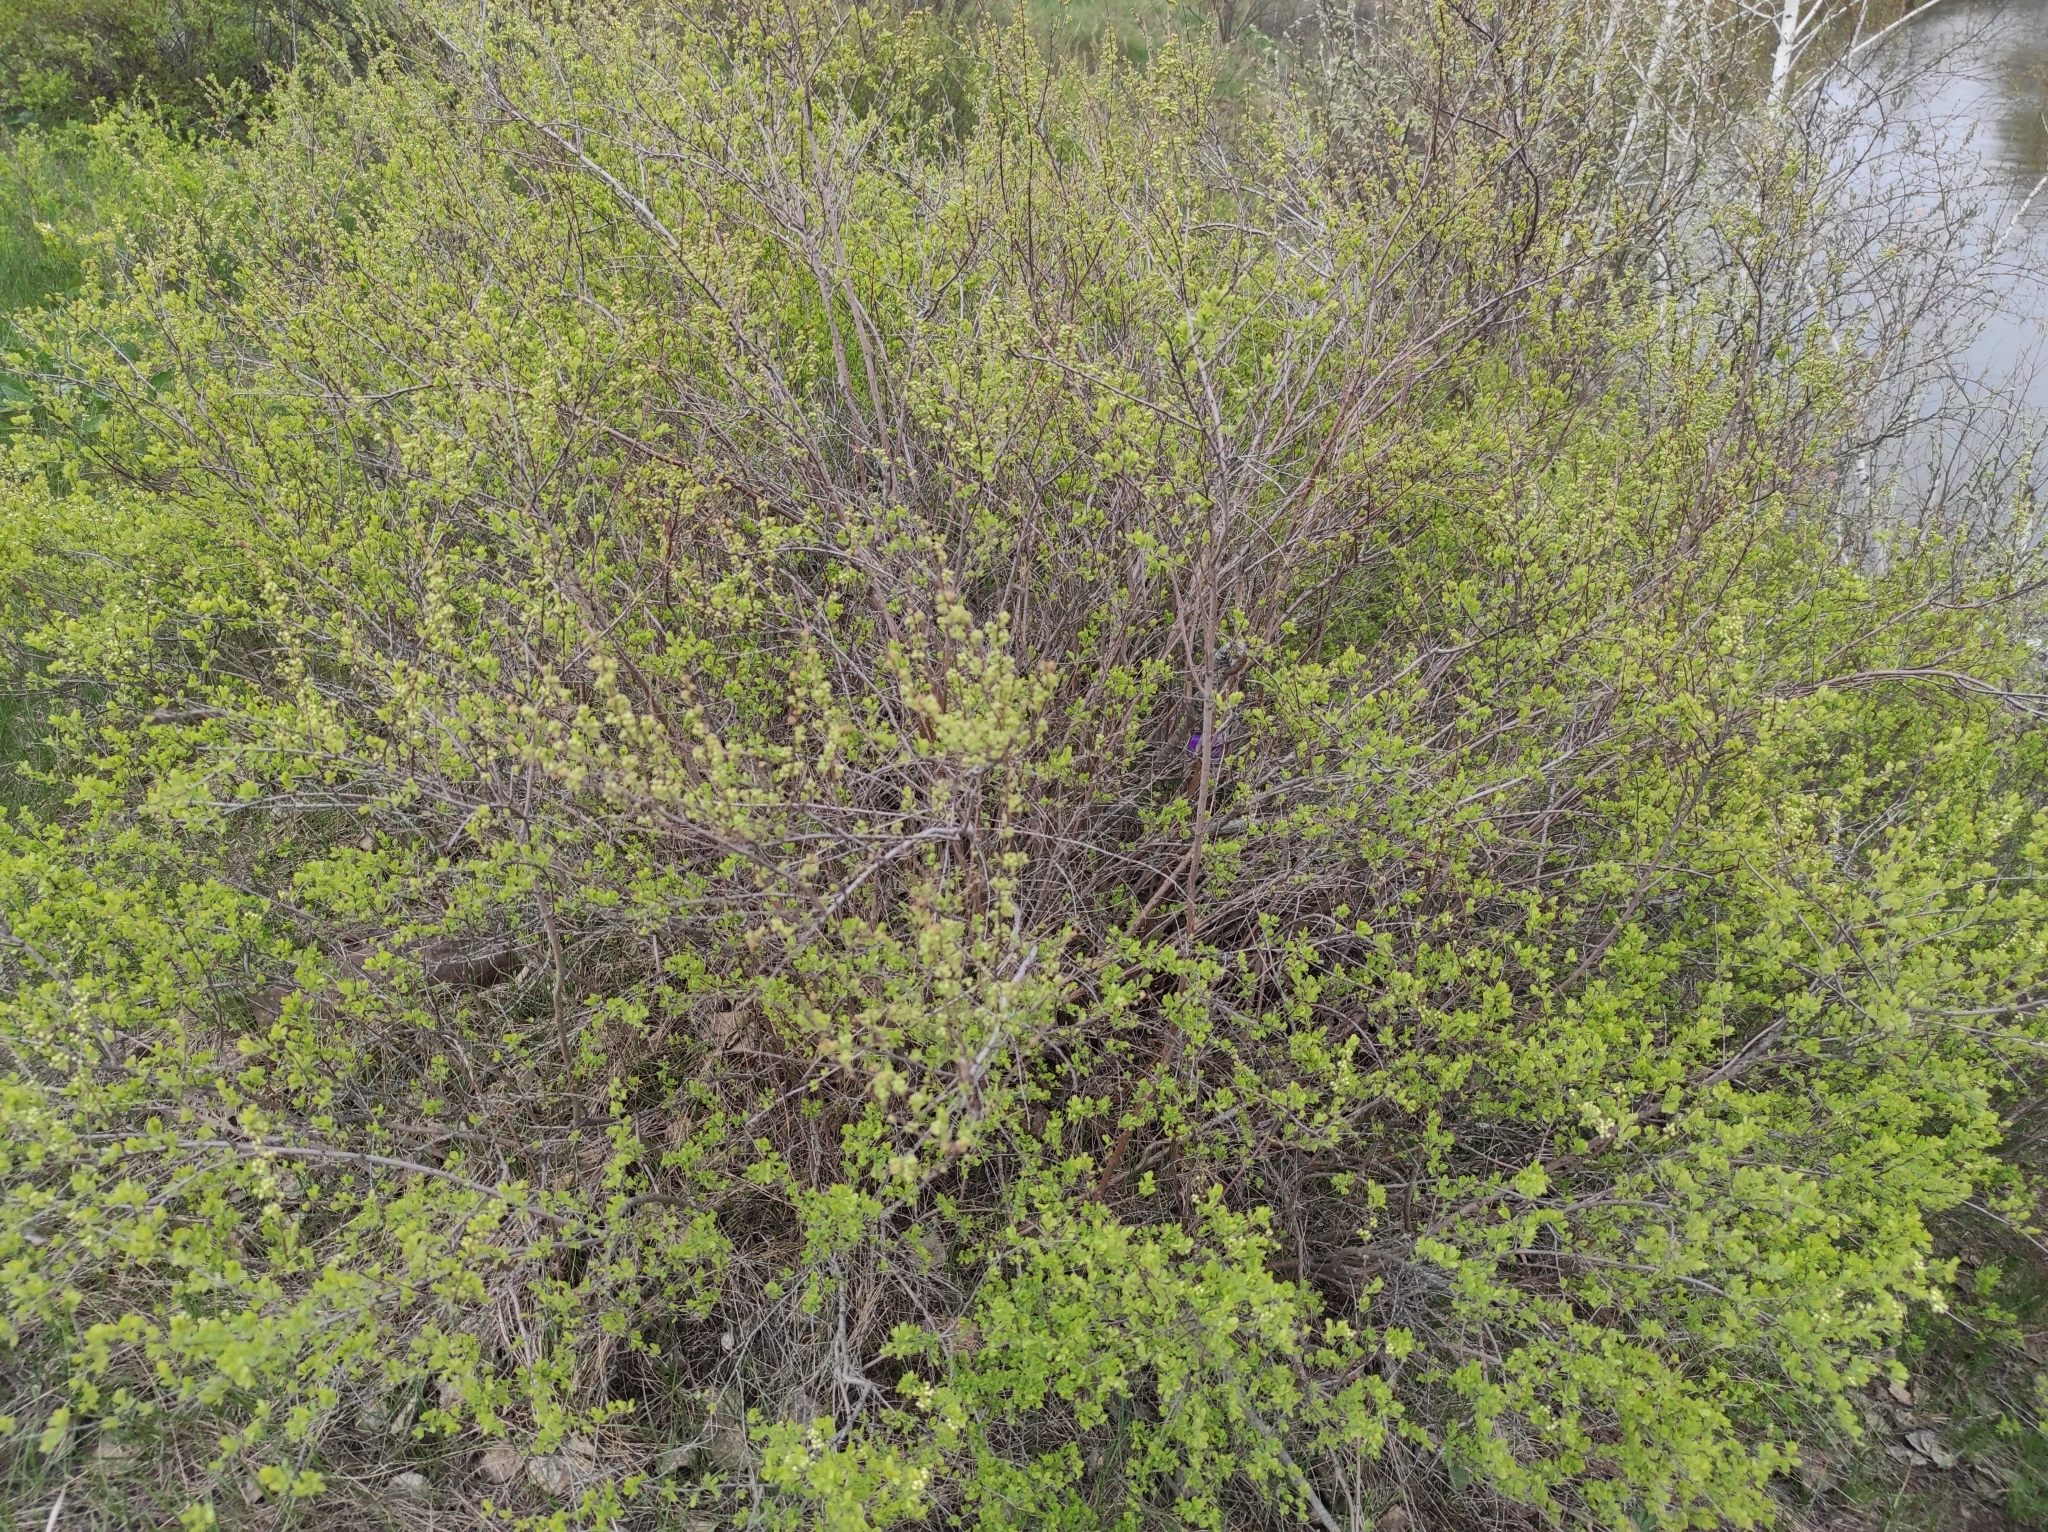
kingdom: Plantae
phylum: Tracheophyta
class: Magnoliopsida
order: Fagales
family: Betulaceae
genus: Betula
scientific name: Betula pendula
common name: Silver birch
